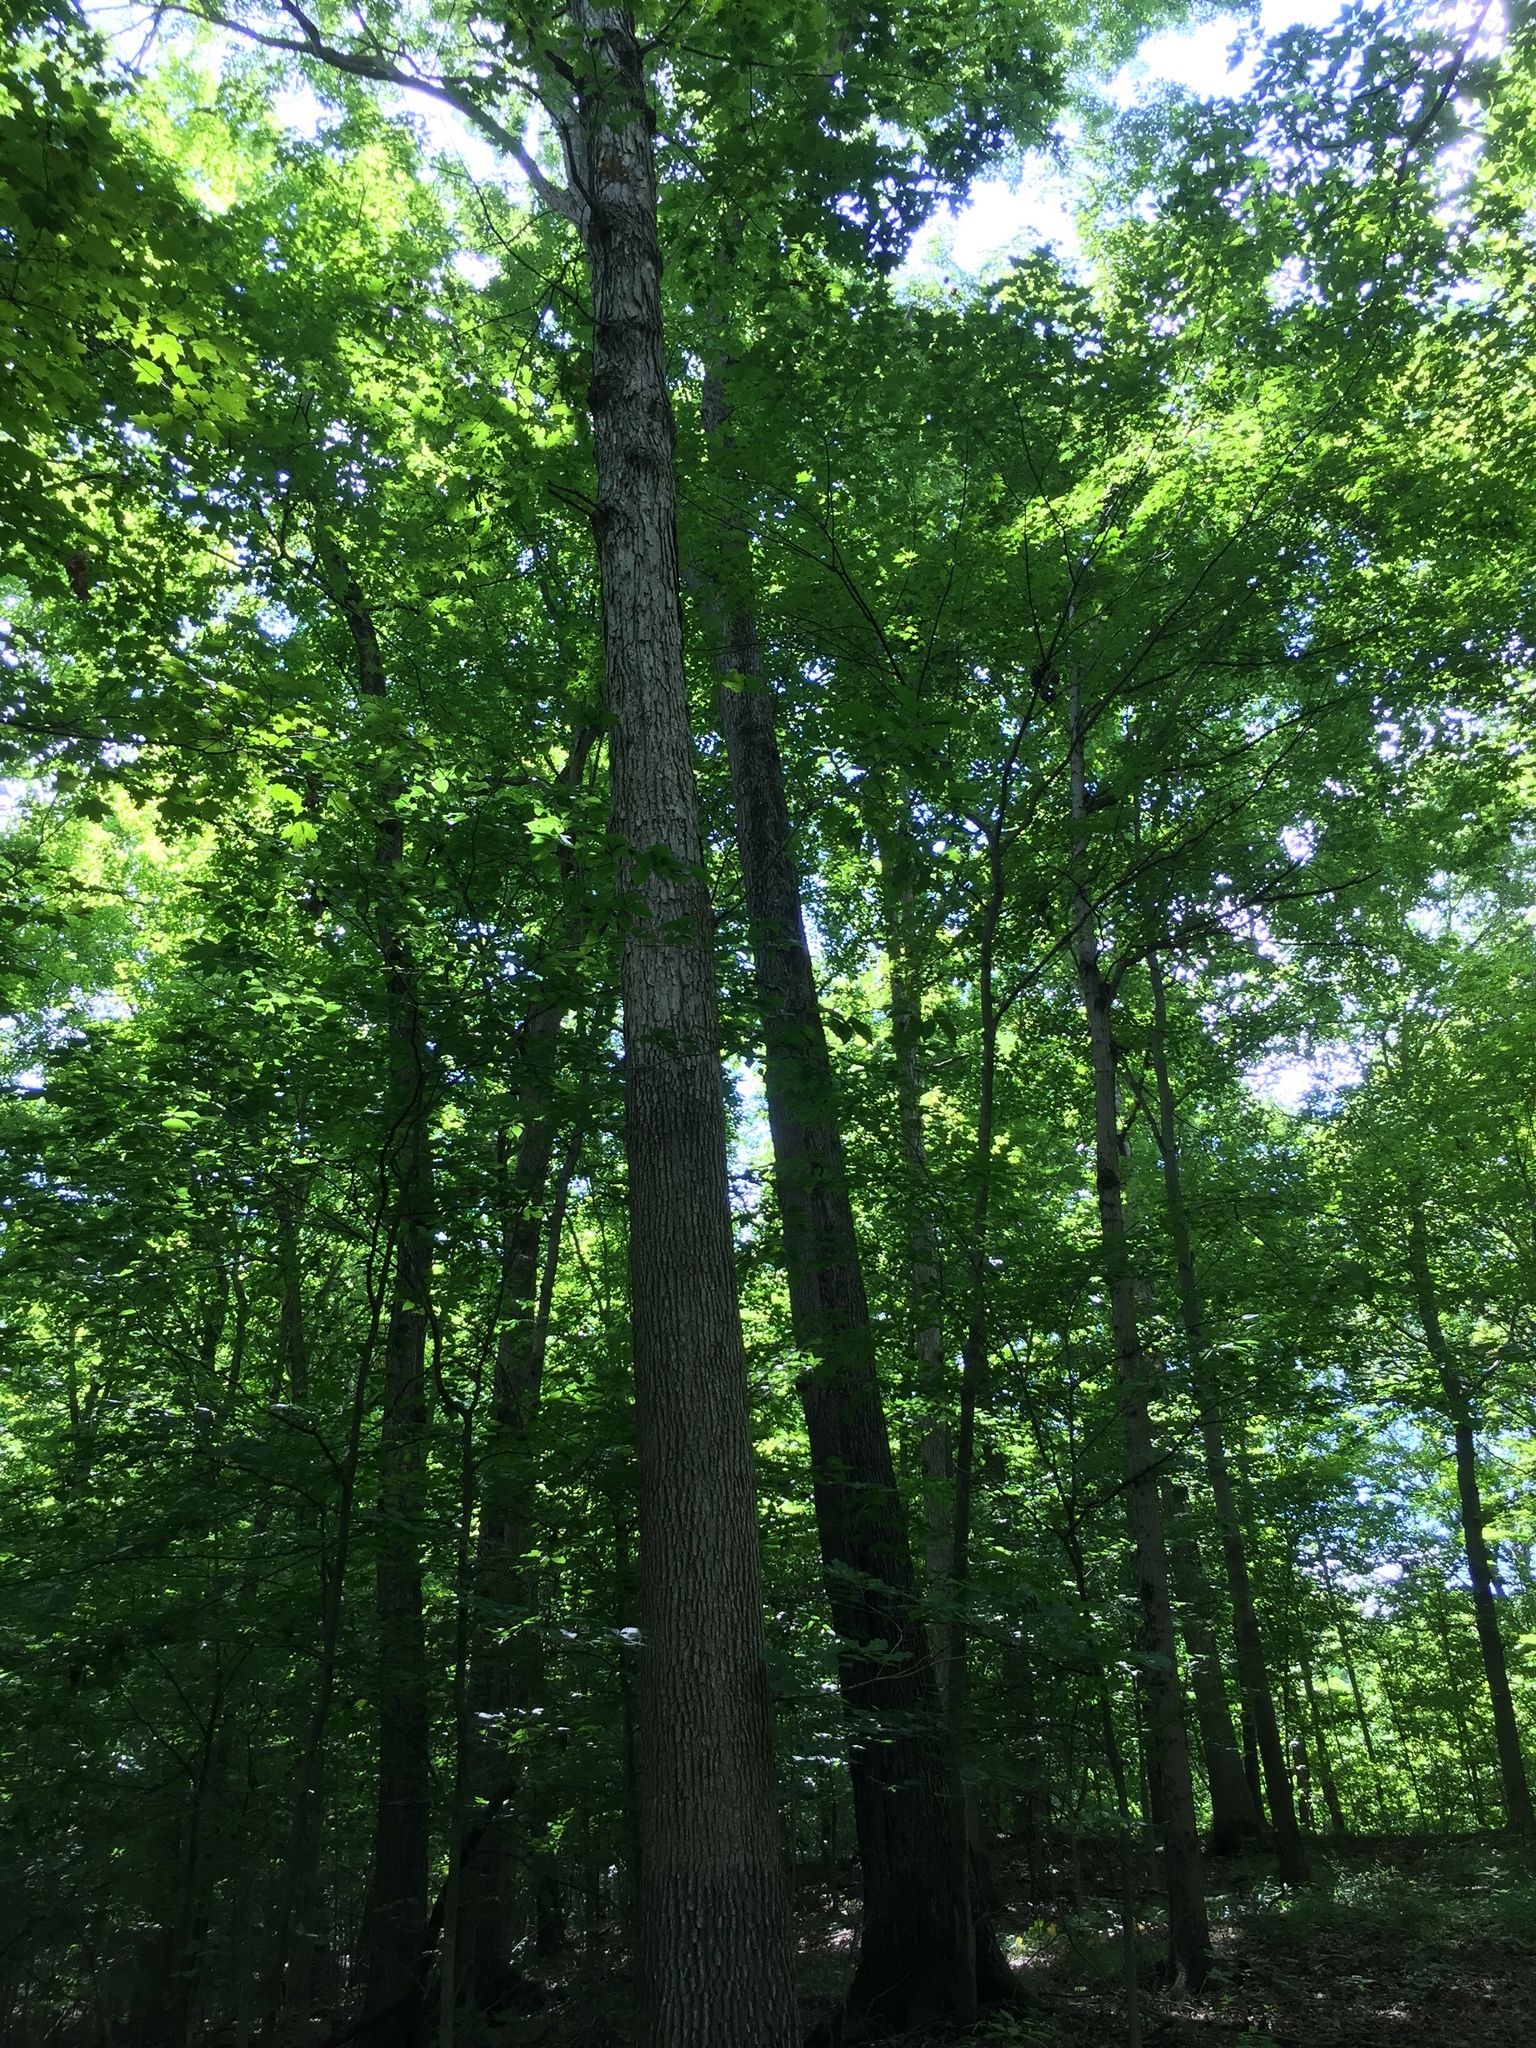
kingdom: Plantae
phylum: Tracheophyta
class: Magnoliopsida
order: Fagales
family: Fagaceae
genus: Quercus
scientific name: Quercus alba
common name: White oak
